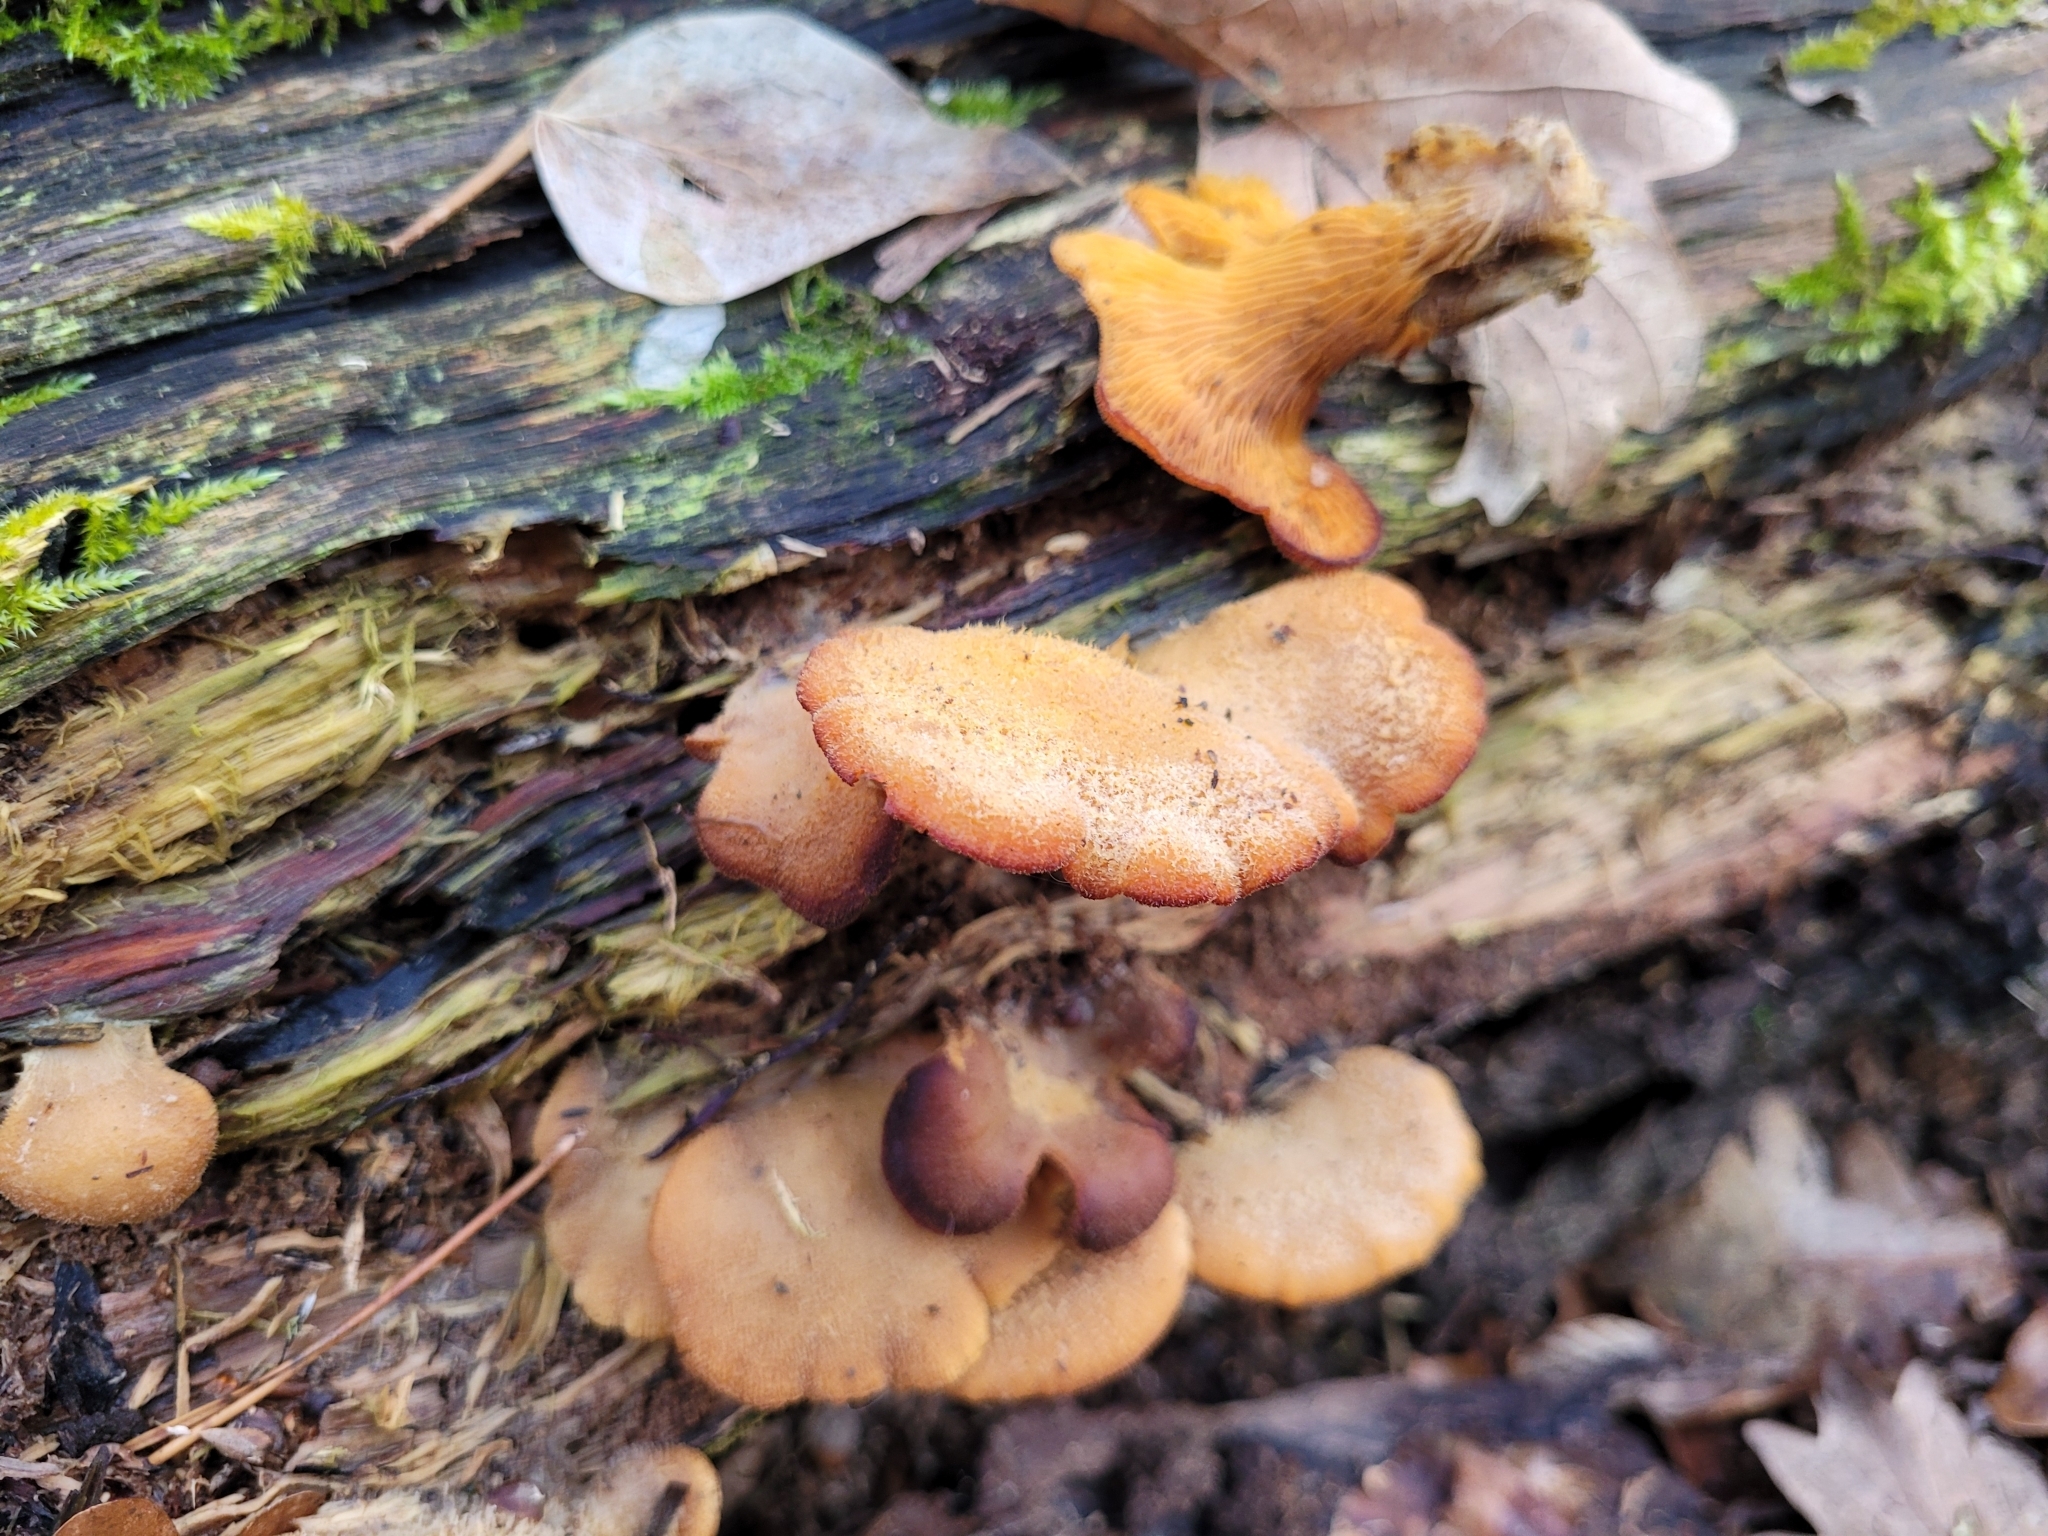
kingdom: Fungi
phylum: Basidiomycota
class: Agaricomycetes
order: Agaricales
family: Phyllotopsidaceae
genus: Phyllotopsis
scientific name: Phyllotopsis nidulans
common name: Orange mock oyster
